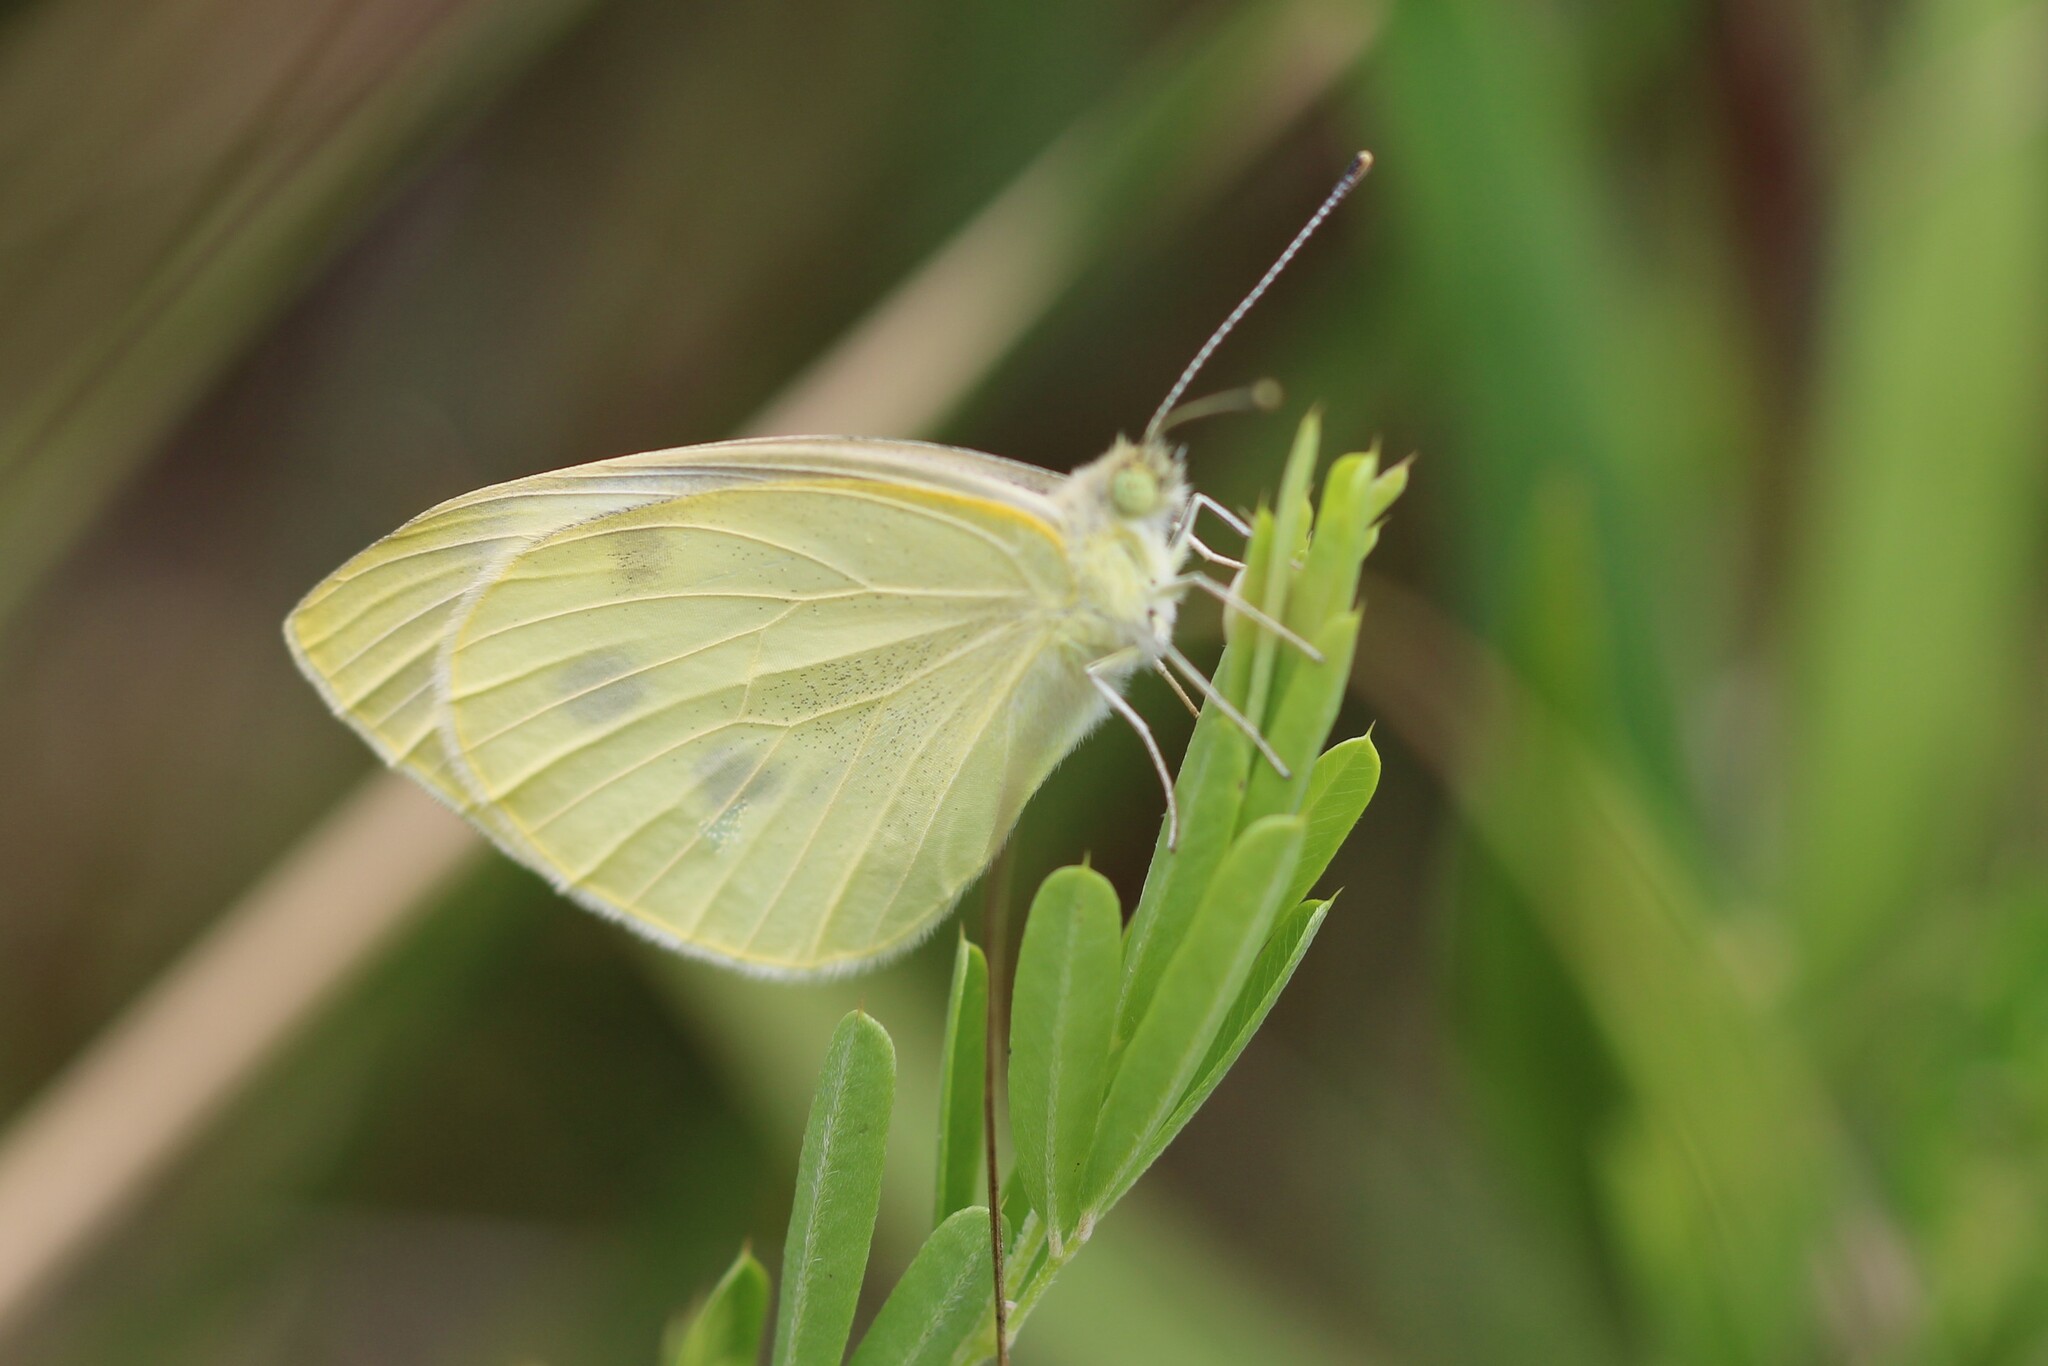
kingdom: Animalia
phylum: Arthropoda
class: Insecta
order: Lepidoptera
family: Pieridae
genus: Pieris
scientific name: Pieris rapae
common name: Small white
